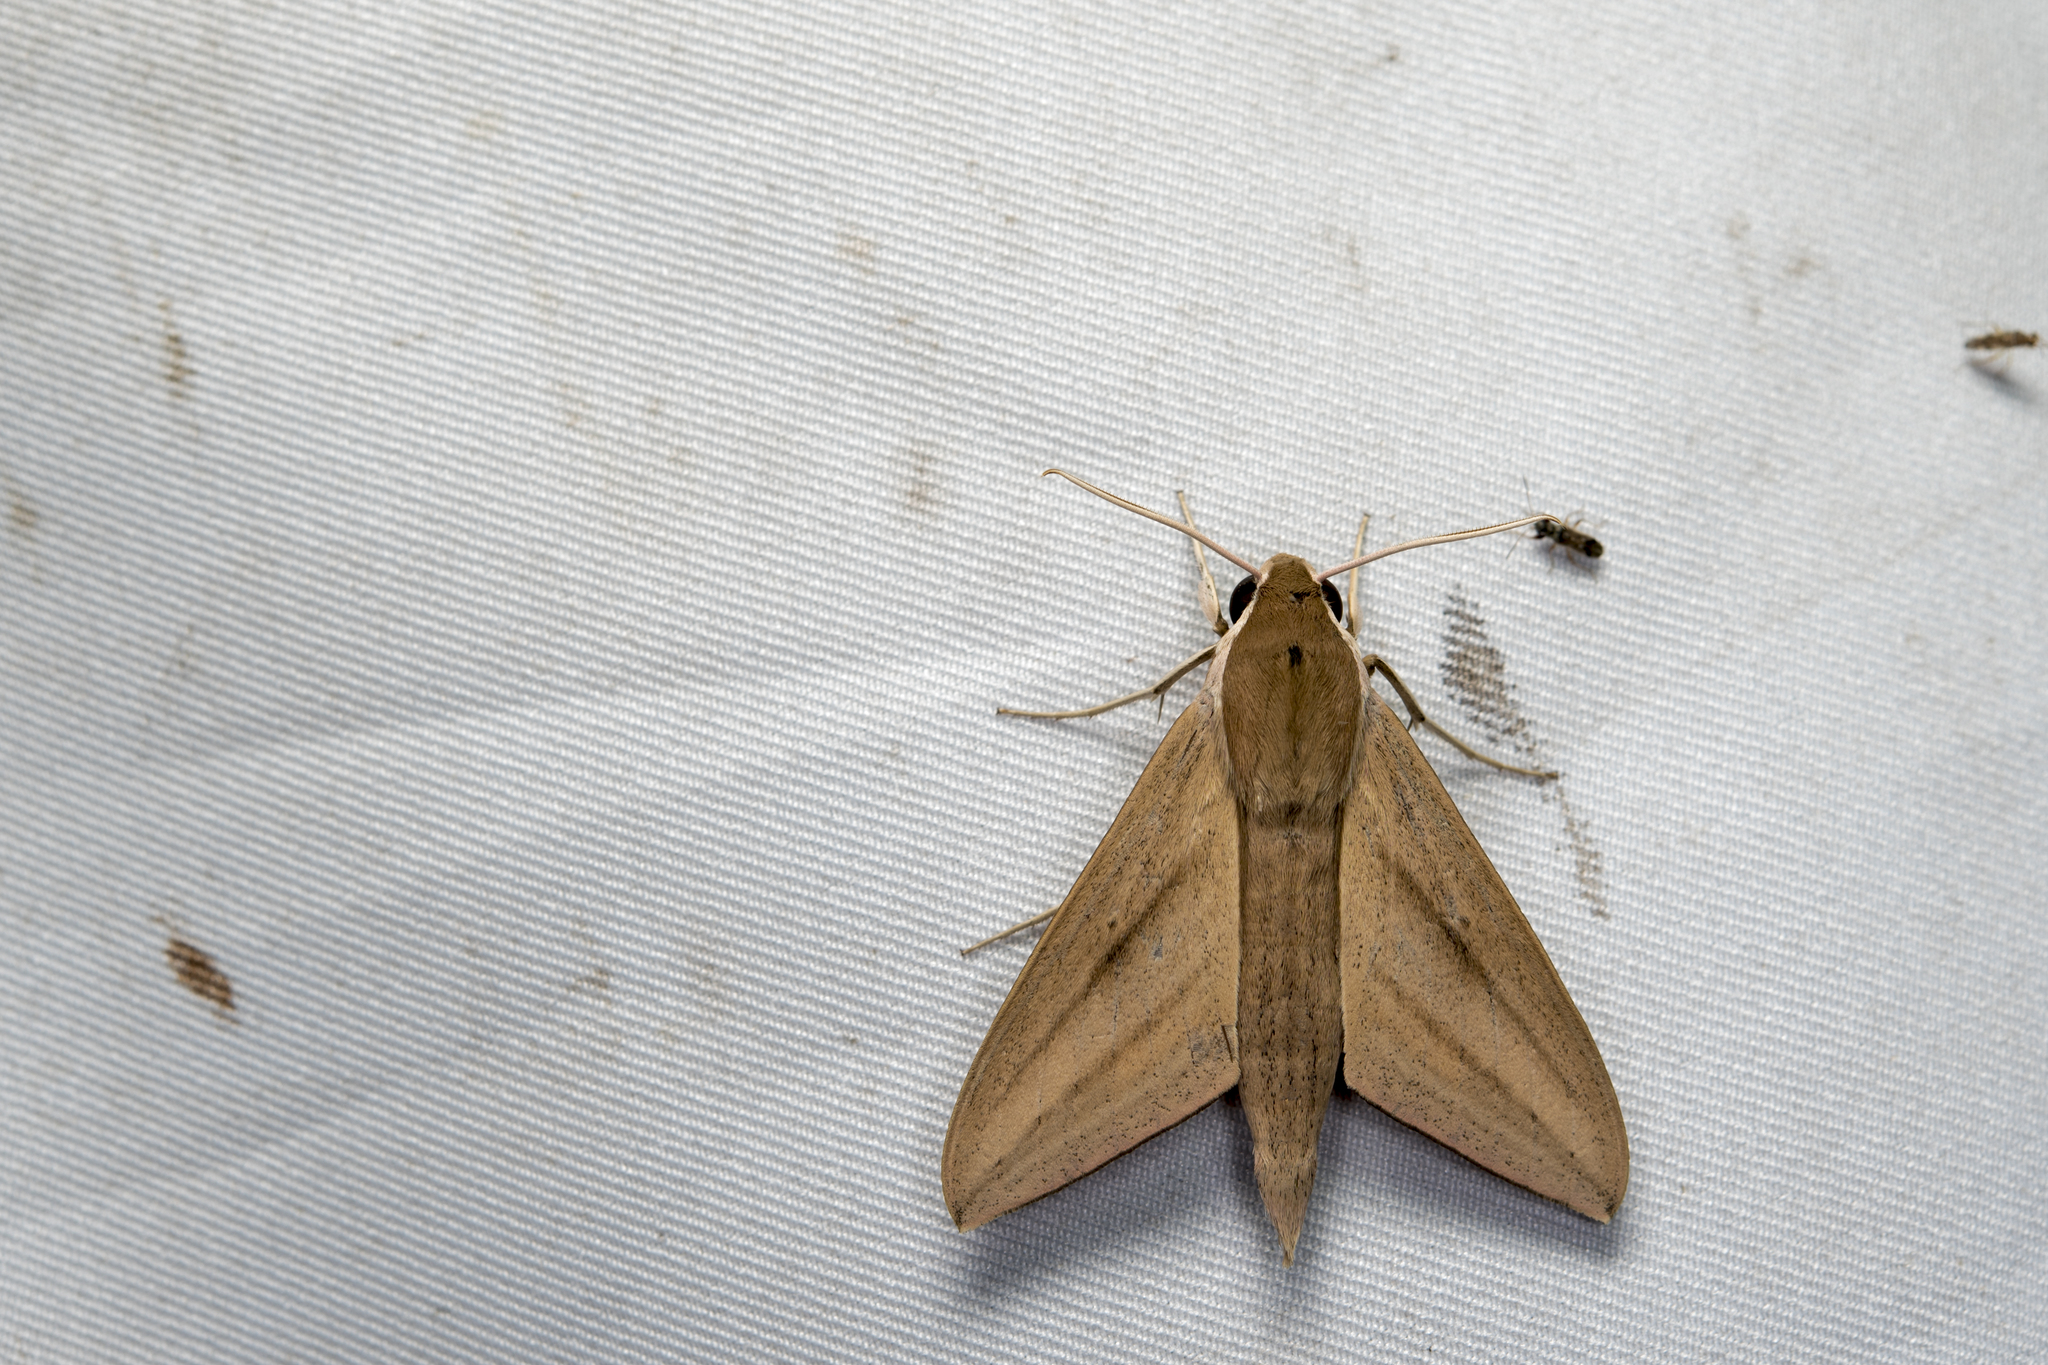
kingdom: Animalia
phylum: Arthropoda
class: Insecta
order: Lepidoptera
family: Sphingidae
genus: Theretra
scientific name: Theretra rhesus
